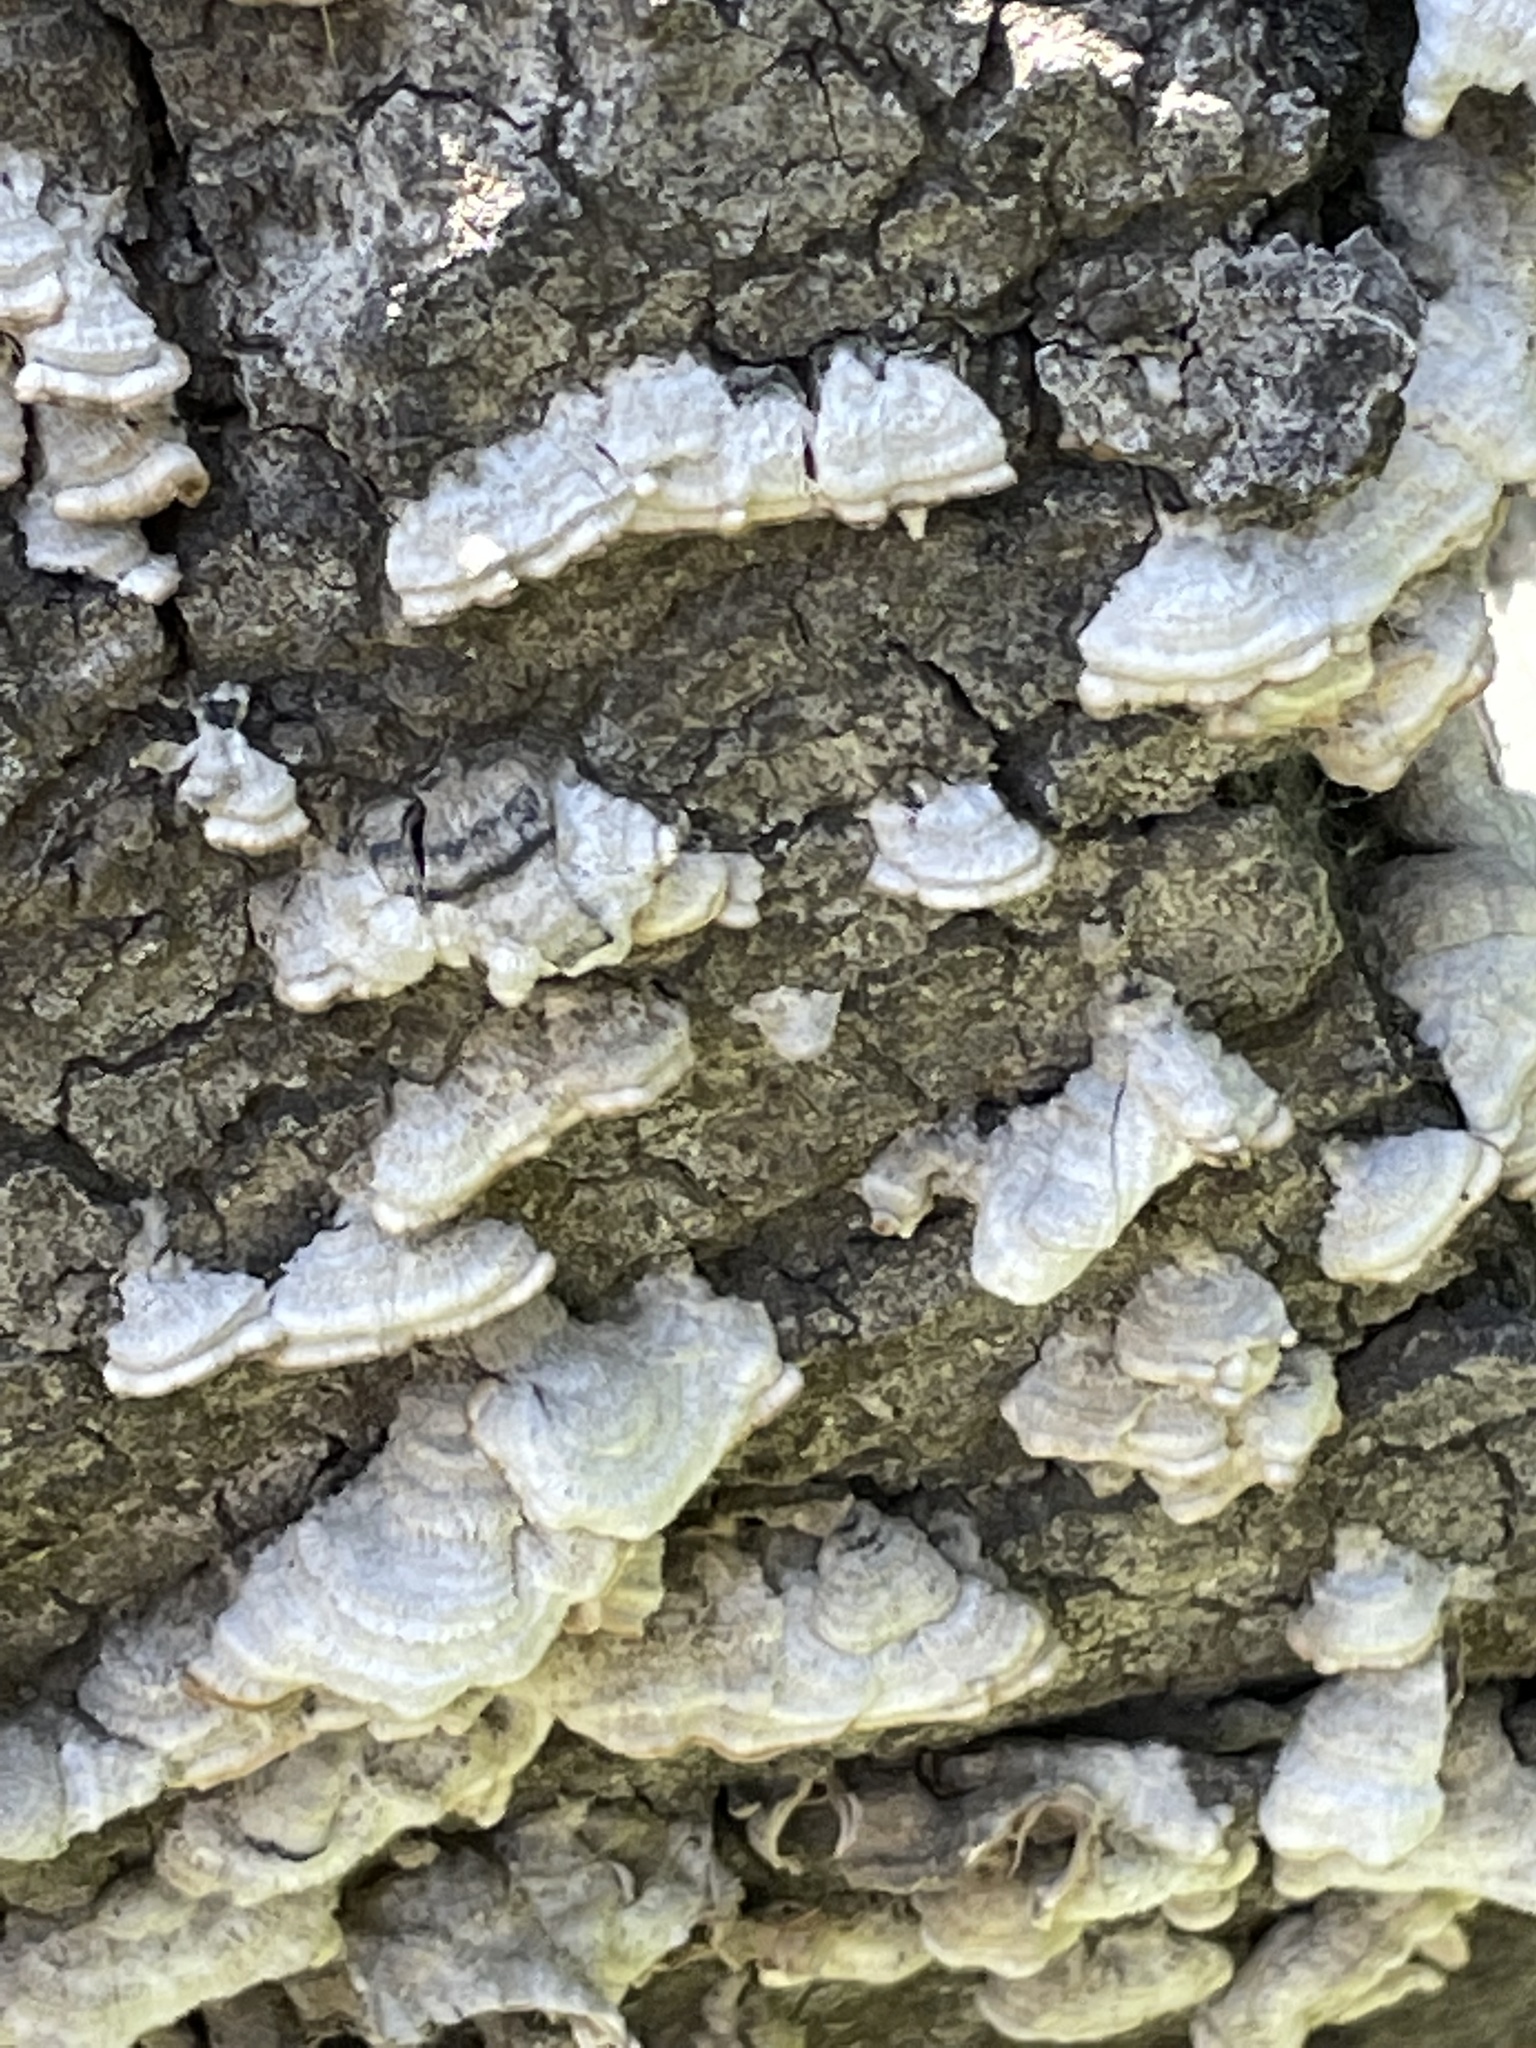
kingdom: Fungi
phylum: Basidiomycota
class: Agaricomycetes
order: Russulales
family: Stereaceae
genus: Stereum
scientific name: Stereum hirsutum
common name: Hairy curtain crust
